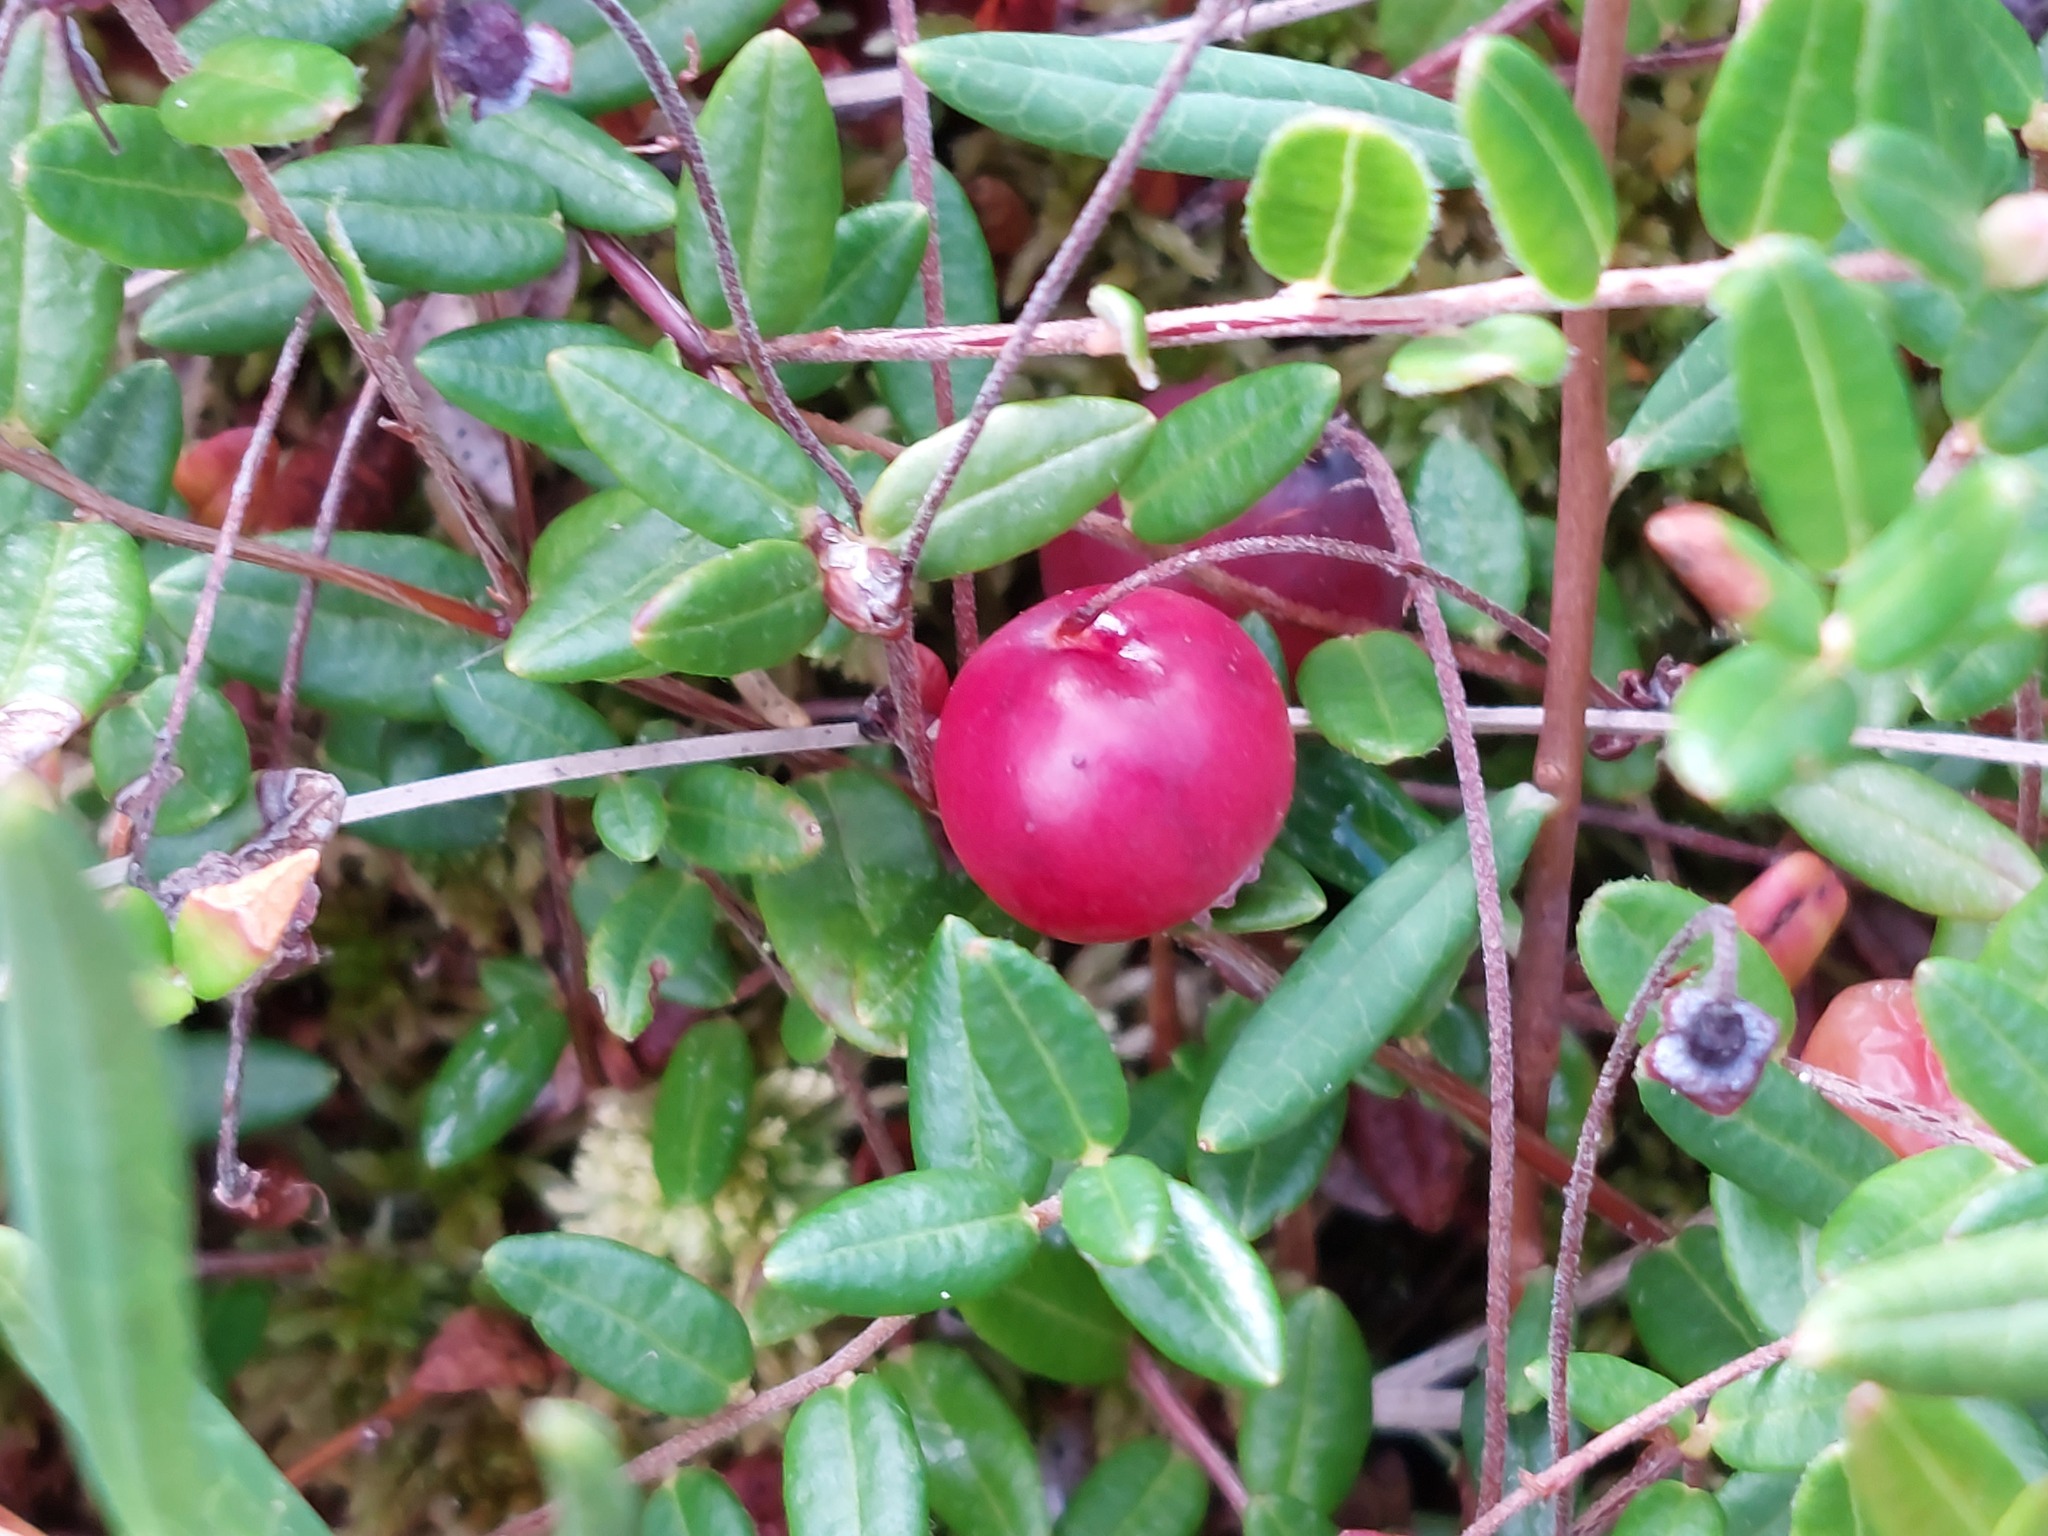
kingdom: Plantae
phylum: Tracheophyta
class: Magnoliopsida
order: Ericales
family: Ericaceae
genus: Vaccinium
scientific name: Vaccinium oxycoccos
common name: Cranberry
